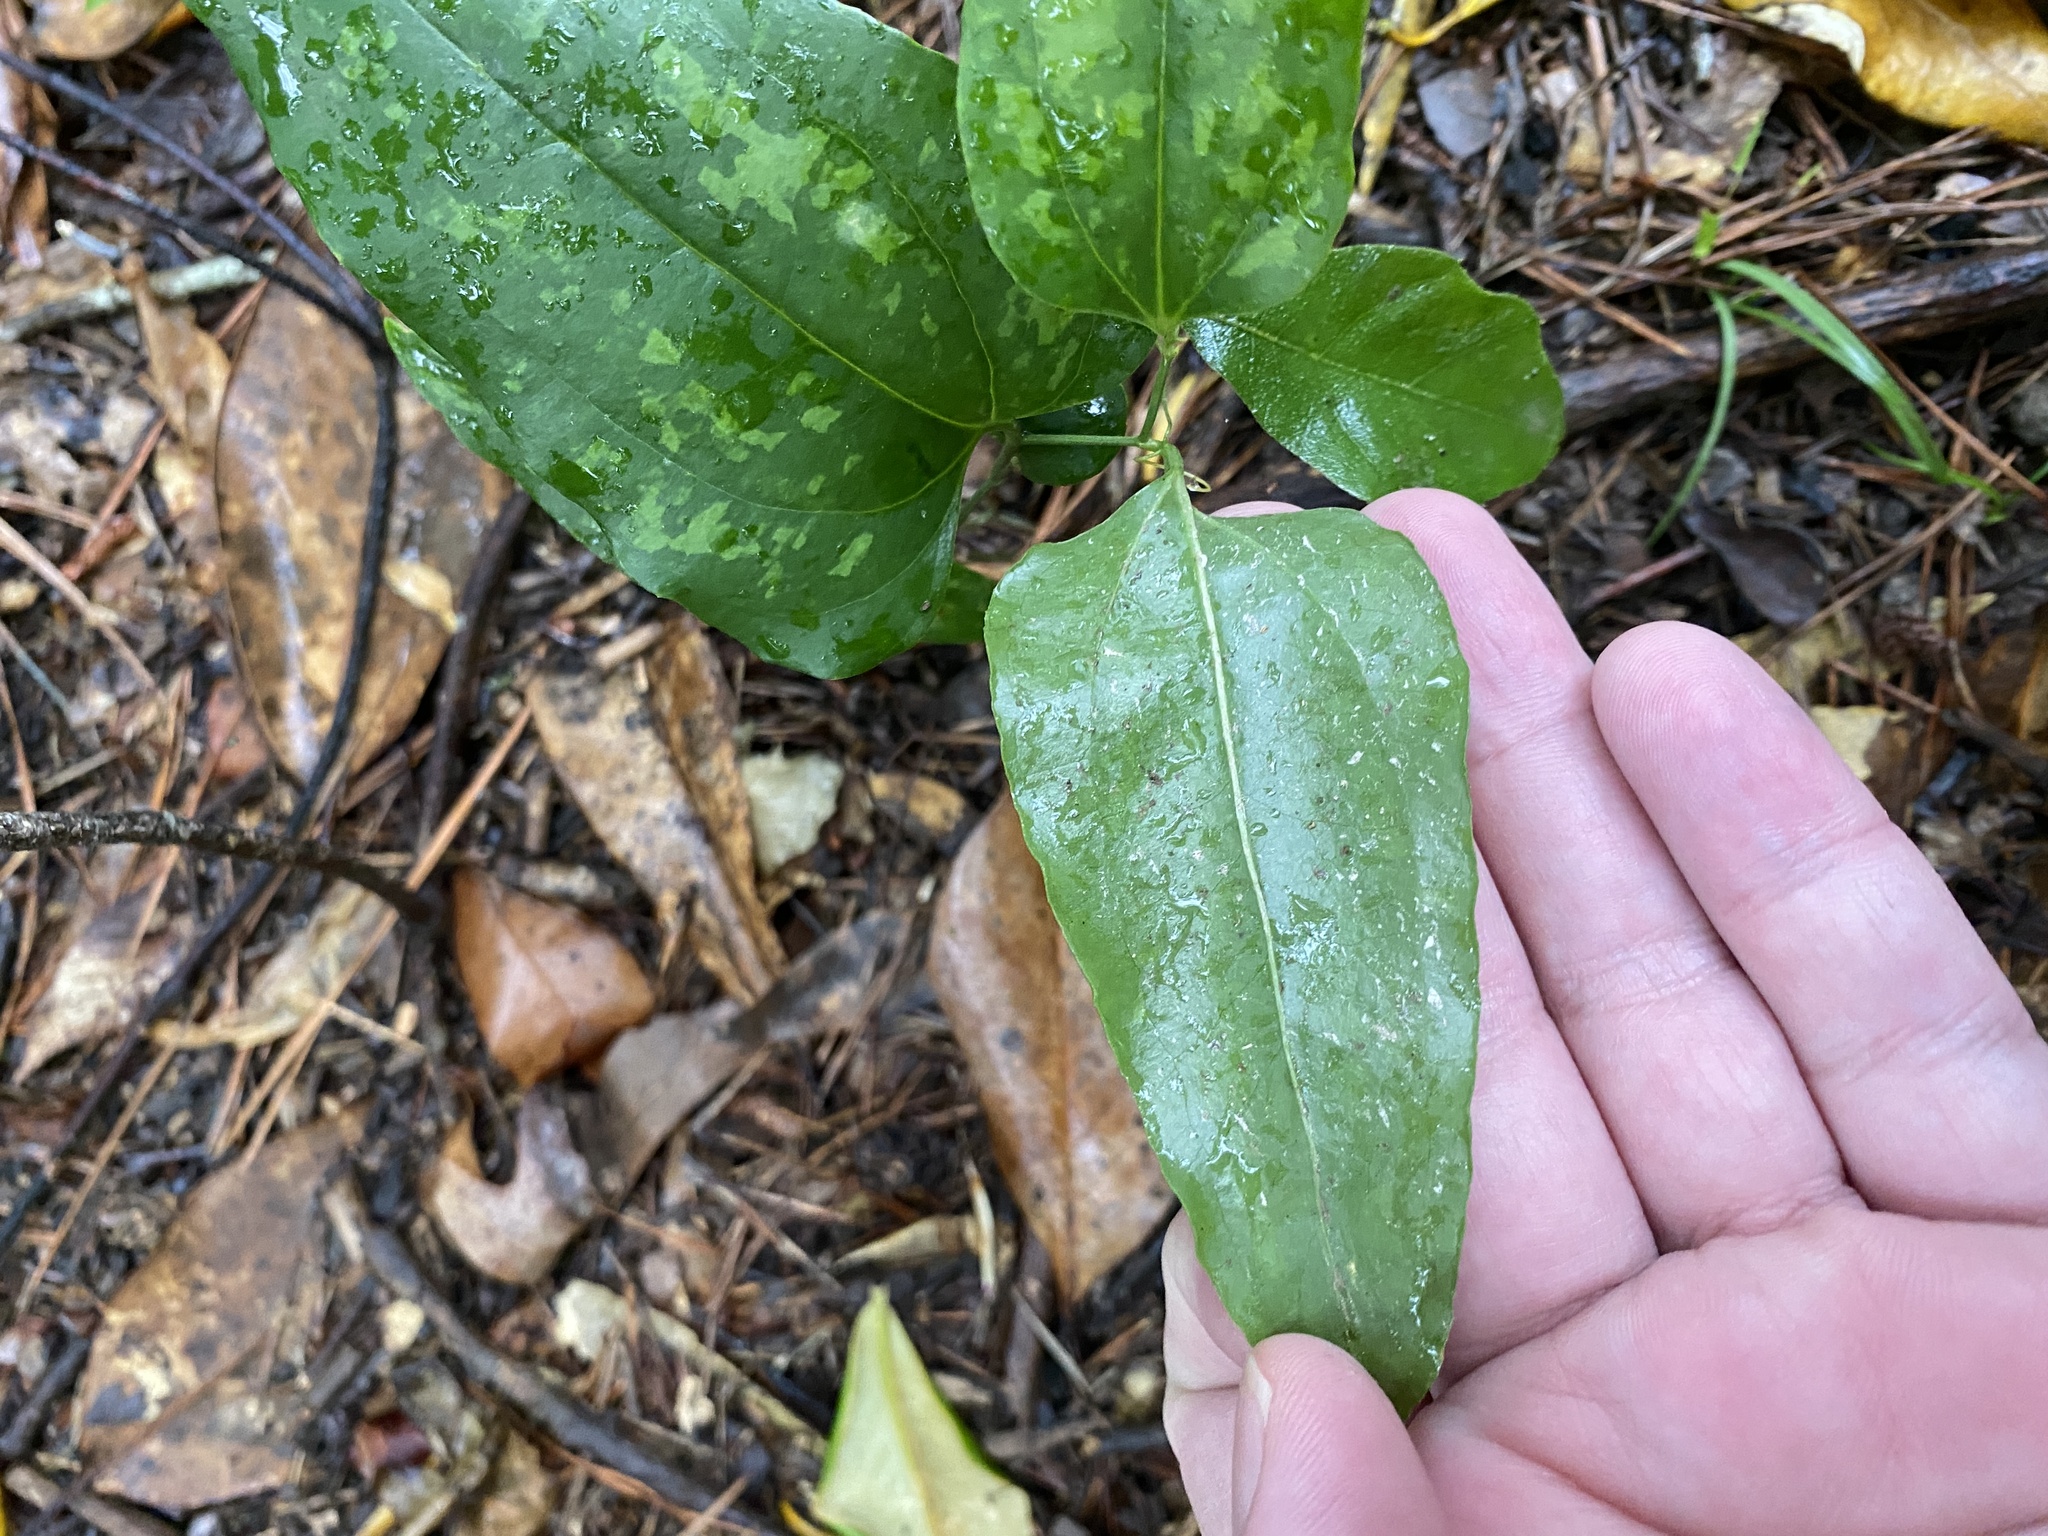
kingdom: Plantae
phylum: Tracheophyta
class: Liliopsida
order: Liliales
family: Smilacaceae
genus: Smilax
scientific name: Smilax maritima
